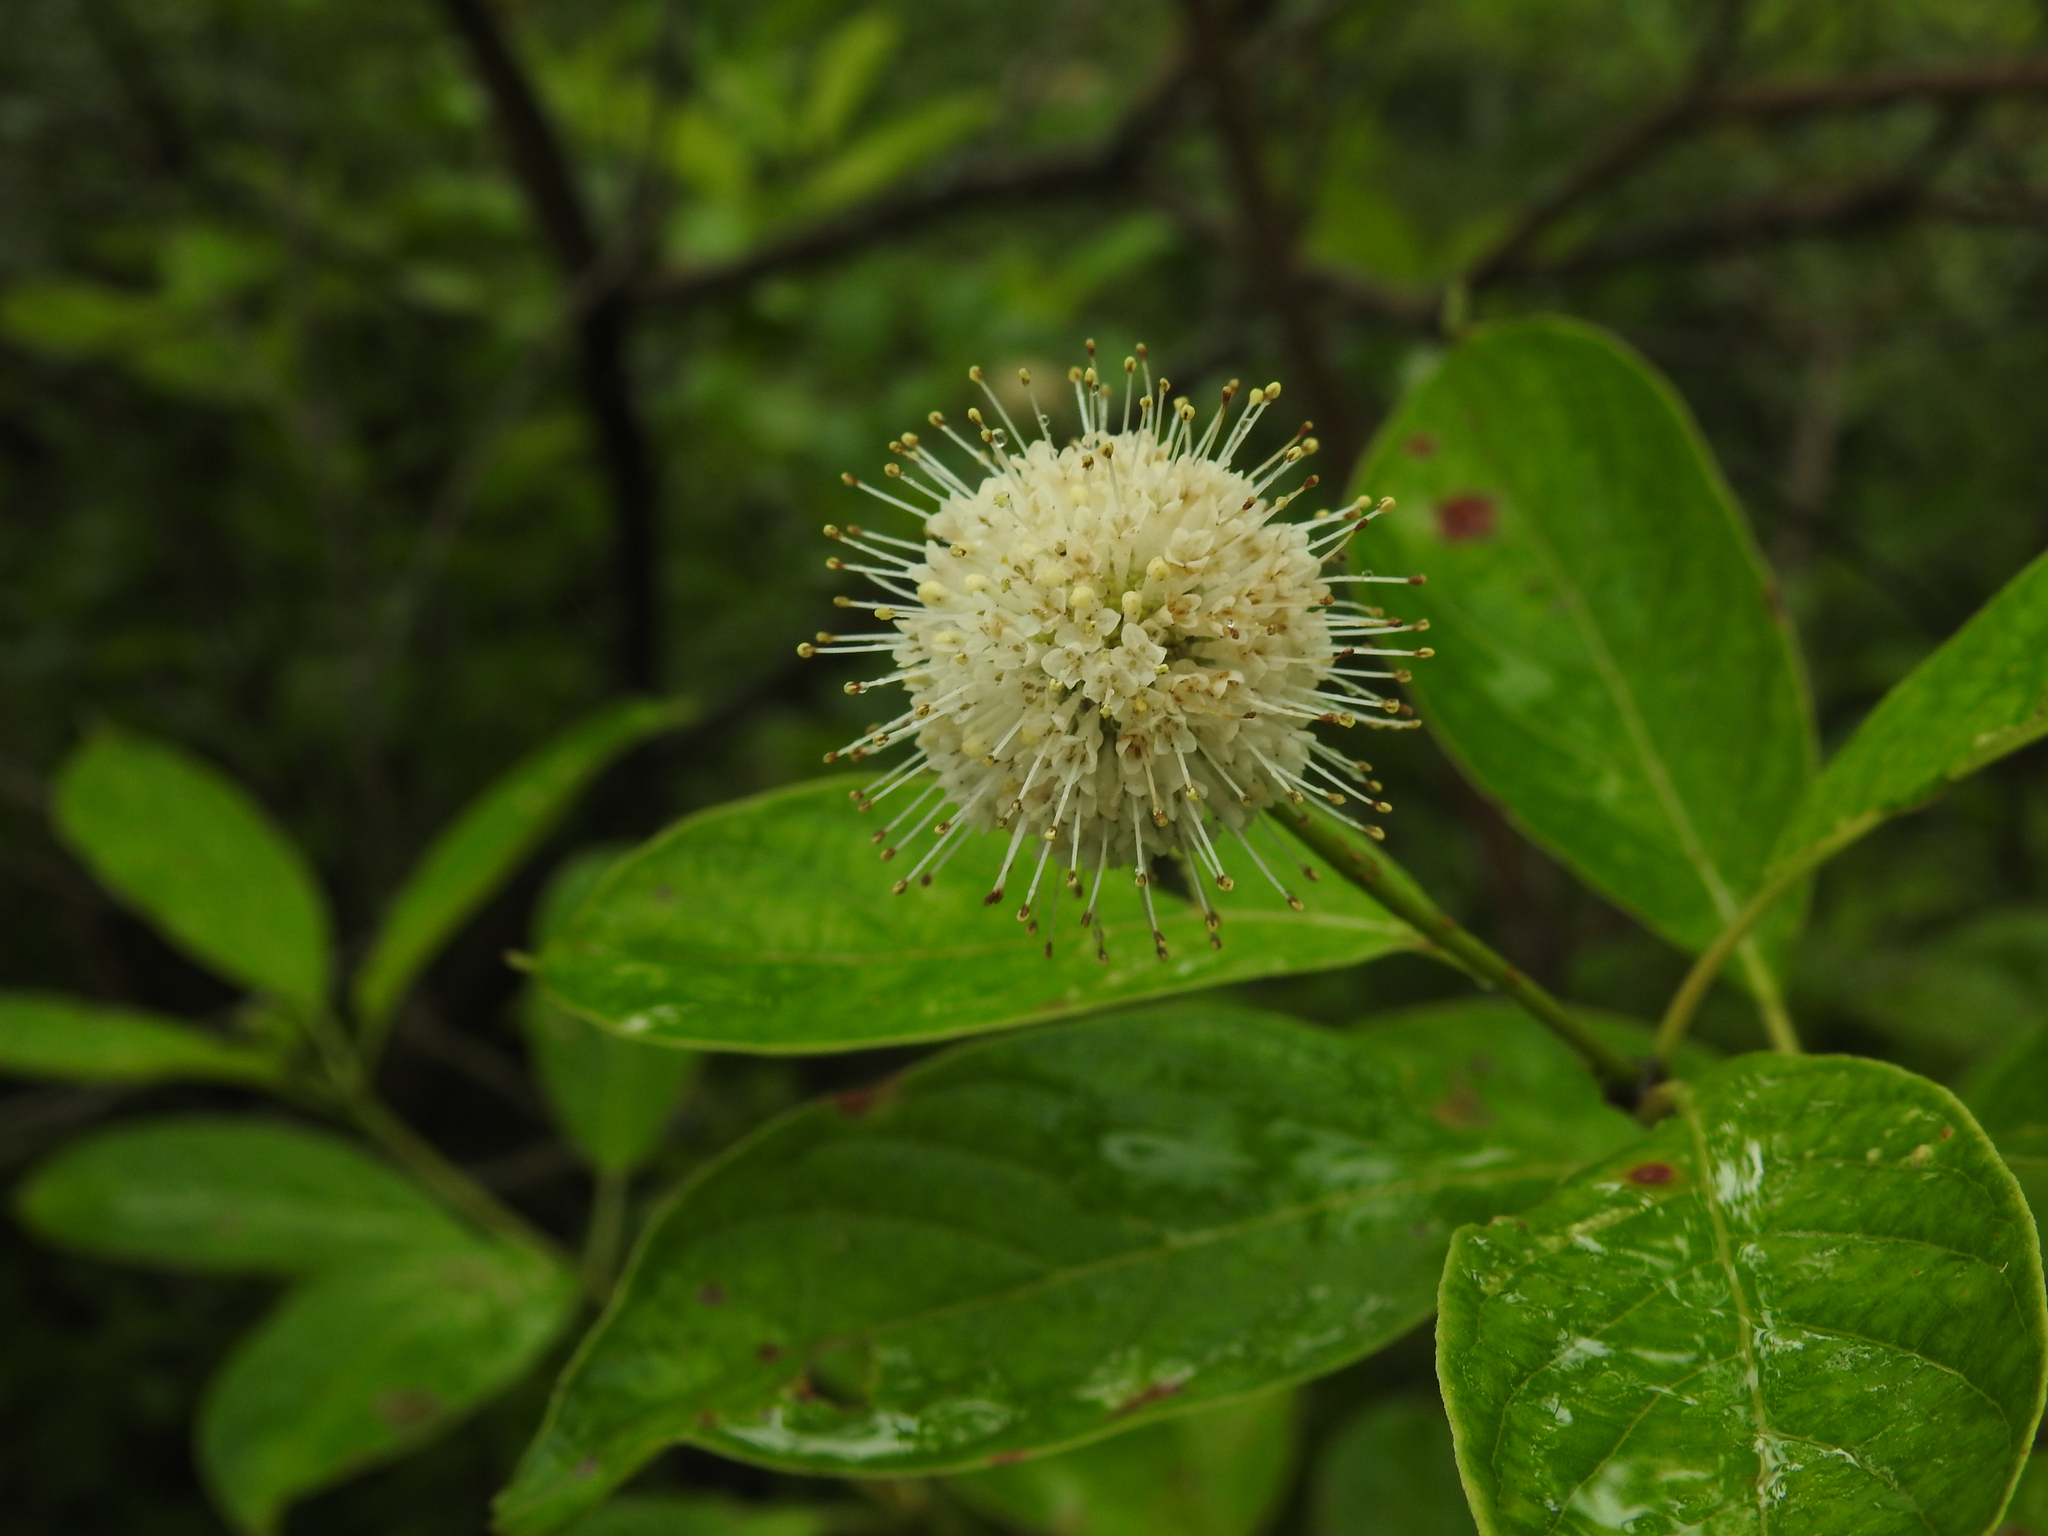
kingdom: Plantae
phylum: Tracheophyta
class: Magnoliopsida
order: Gentianales
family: Rubiaceae
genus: Cephalanthus
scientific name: Cephalanthus occidentalis
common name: Button-willow
